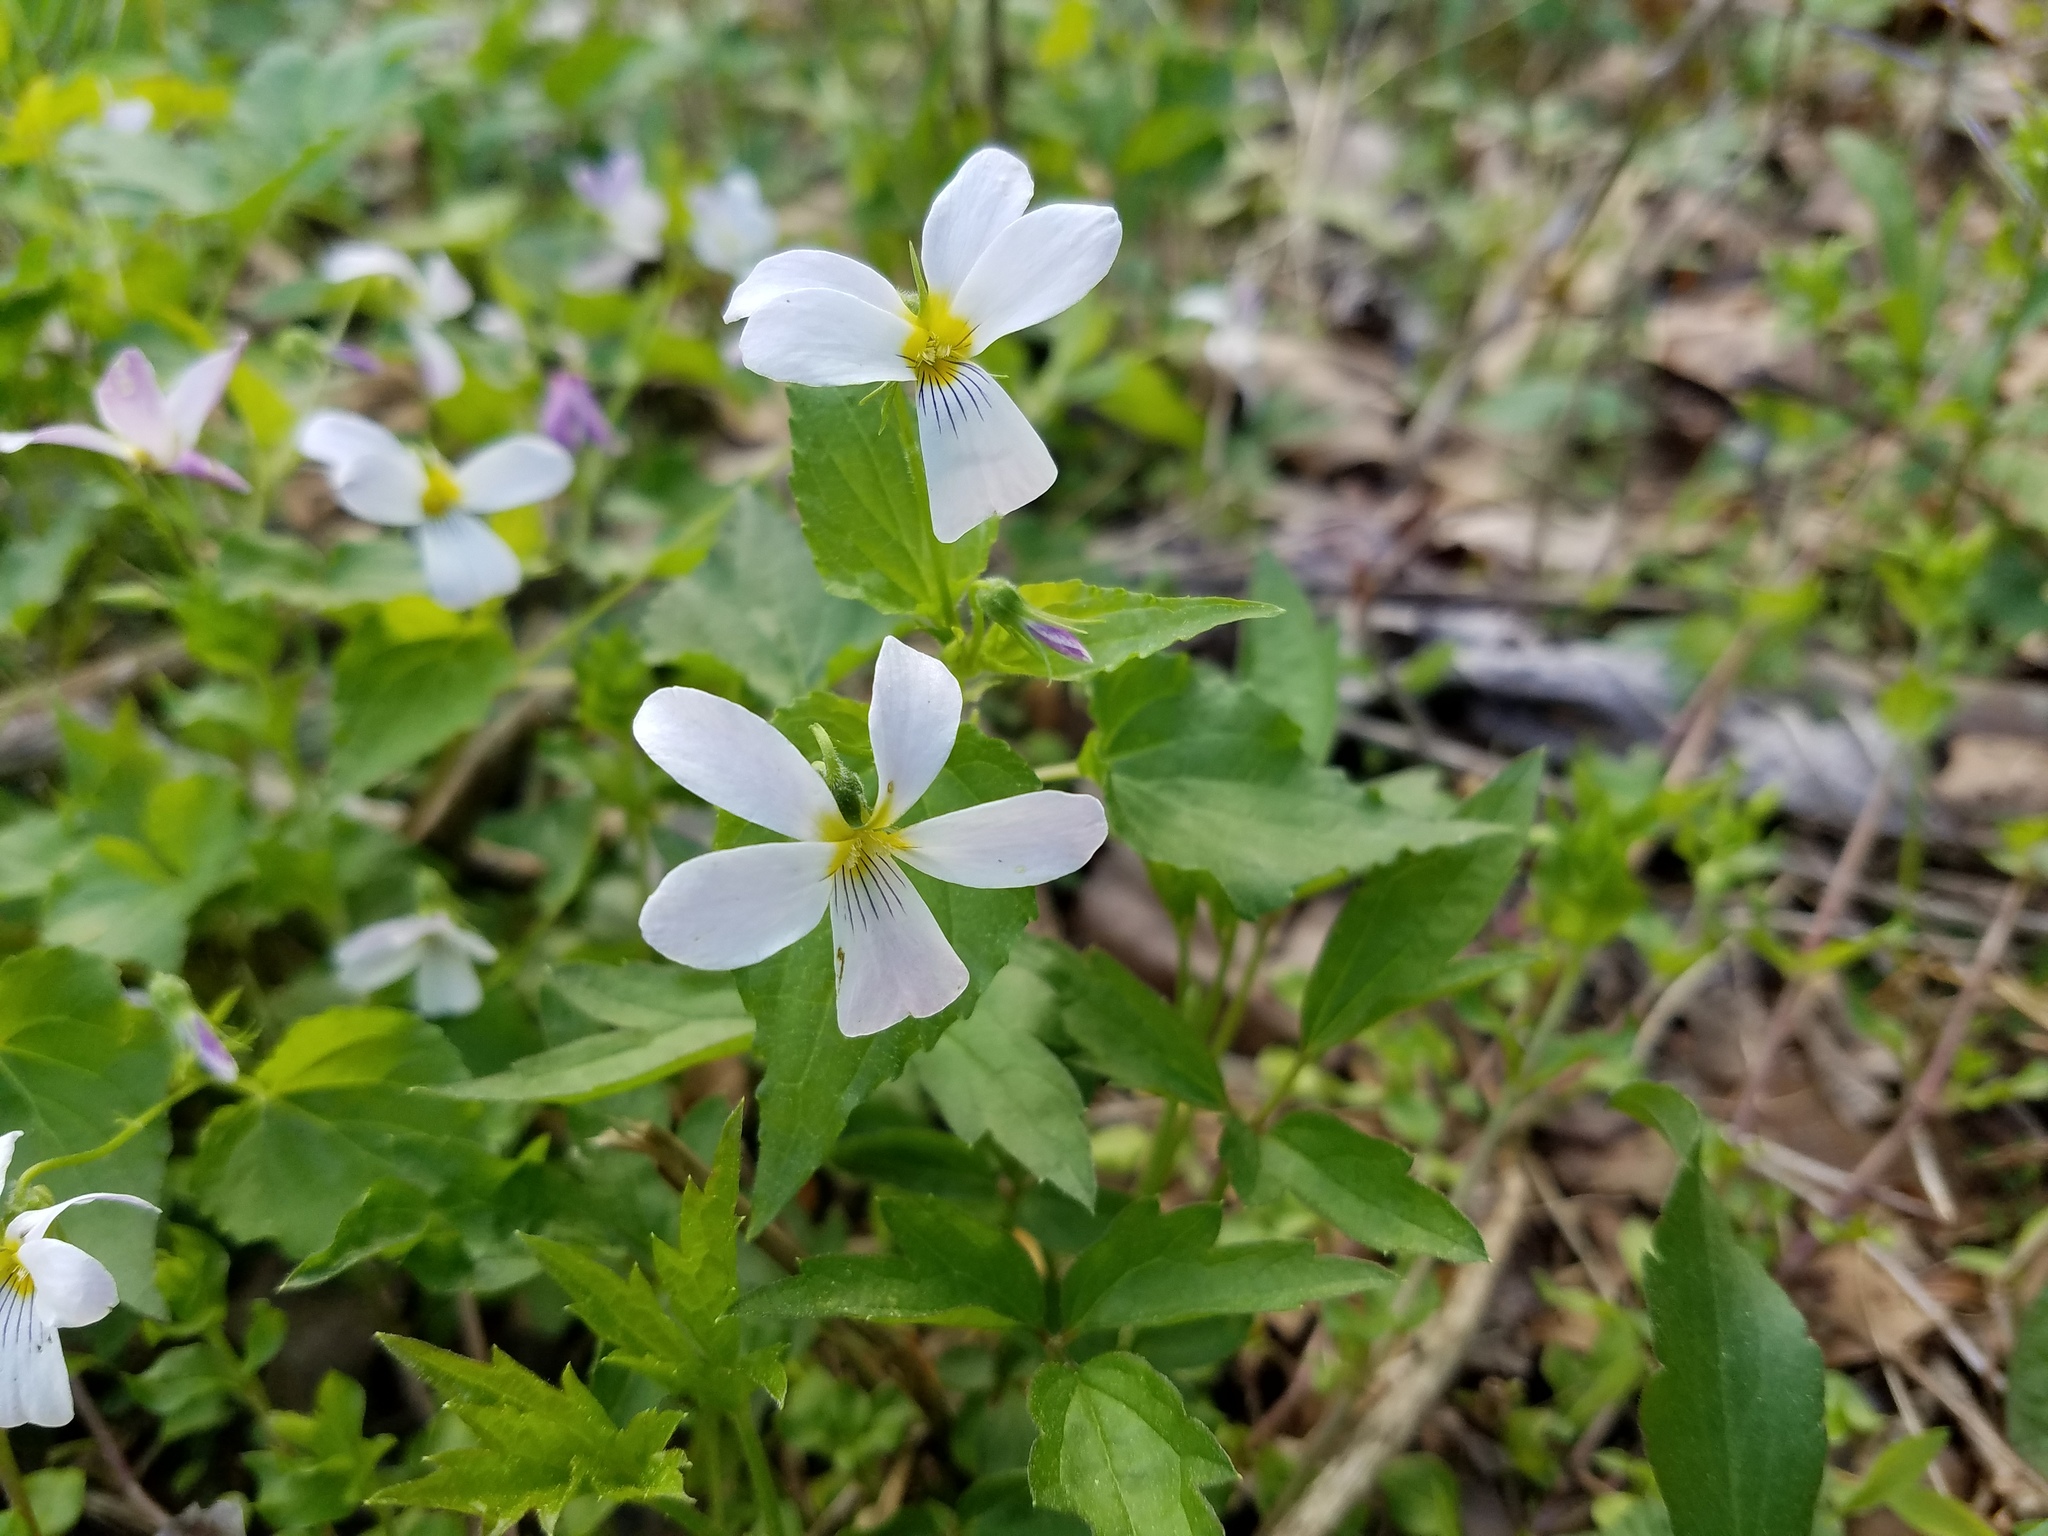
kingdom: Plantae
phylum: Tracheophyta
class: Magnoliopsida
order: Malpighiales
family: Violaceae
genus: Viola
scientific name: Viola canadensis
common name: Canada violet
